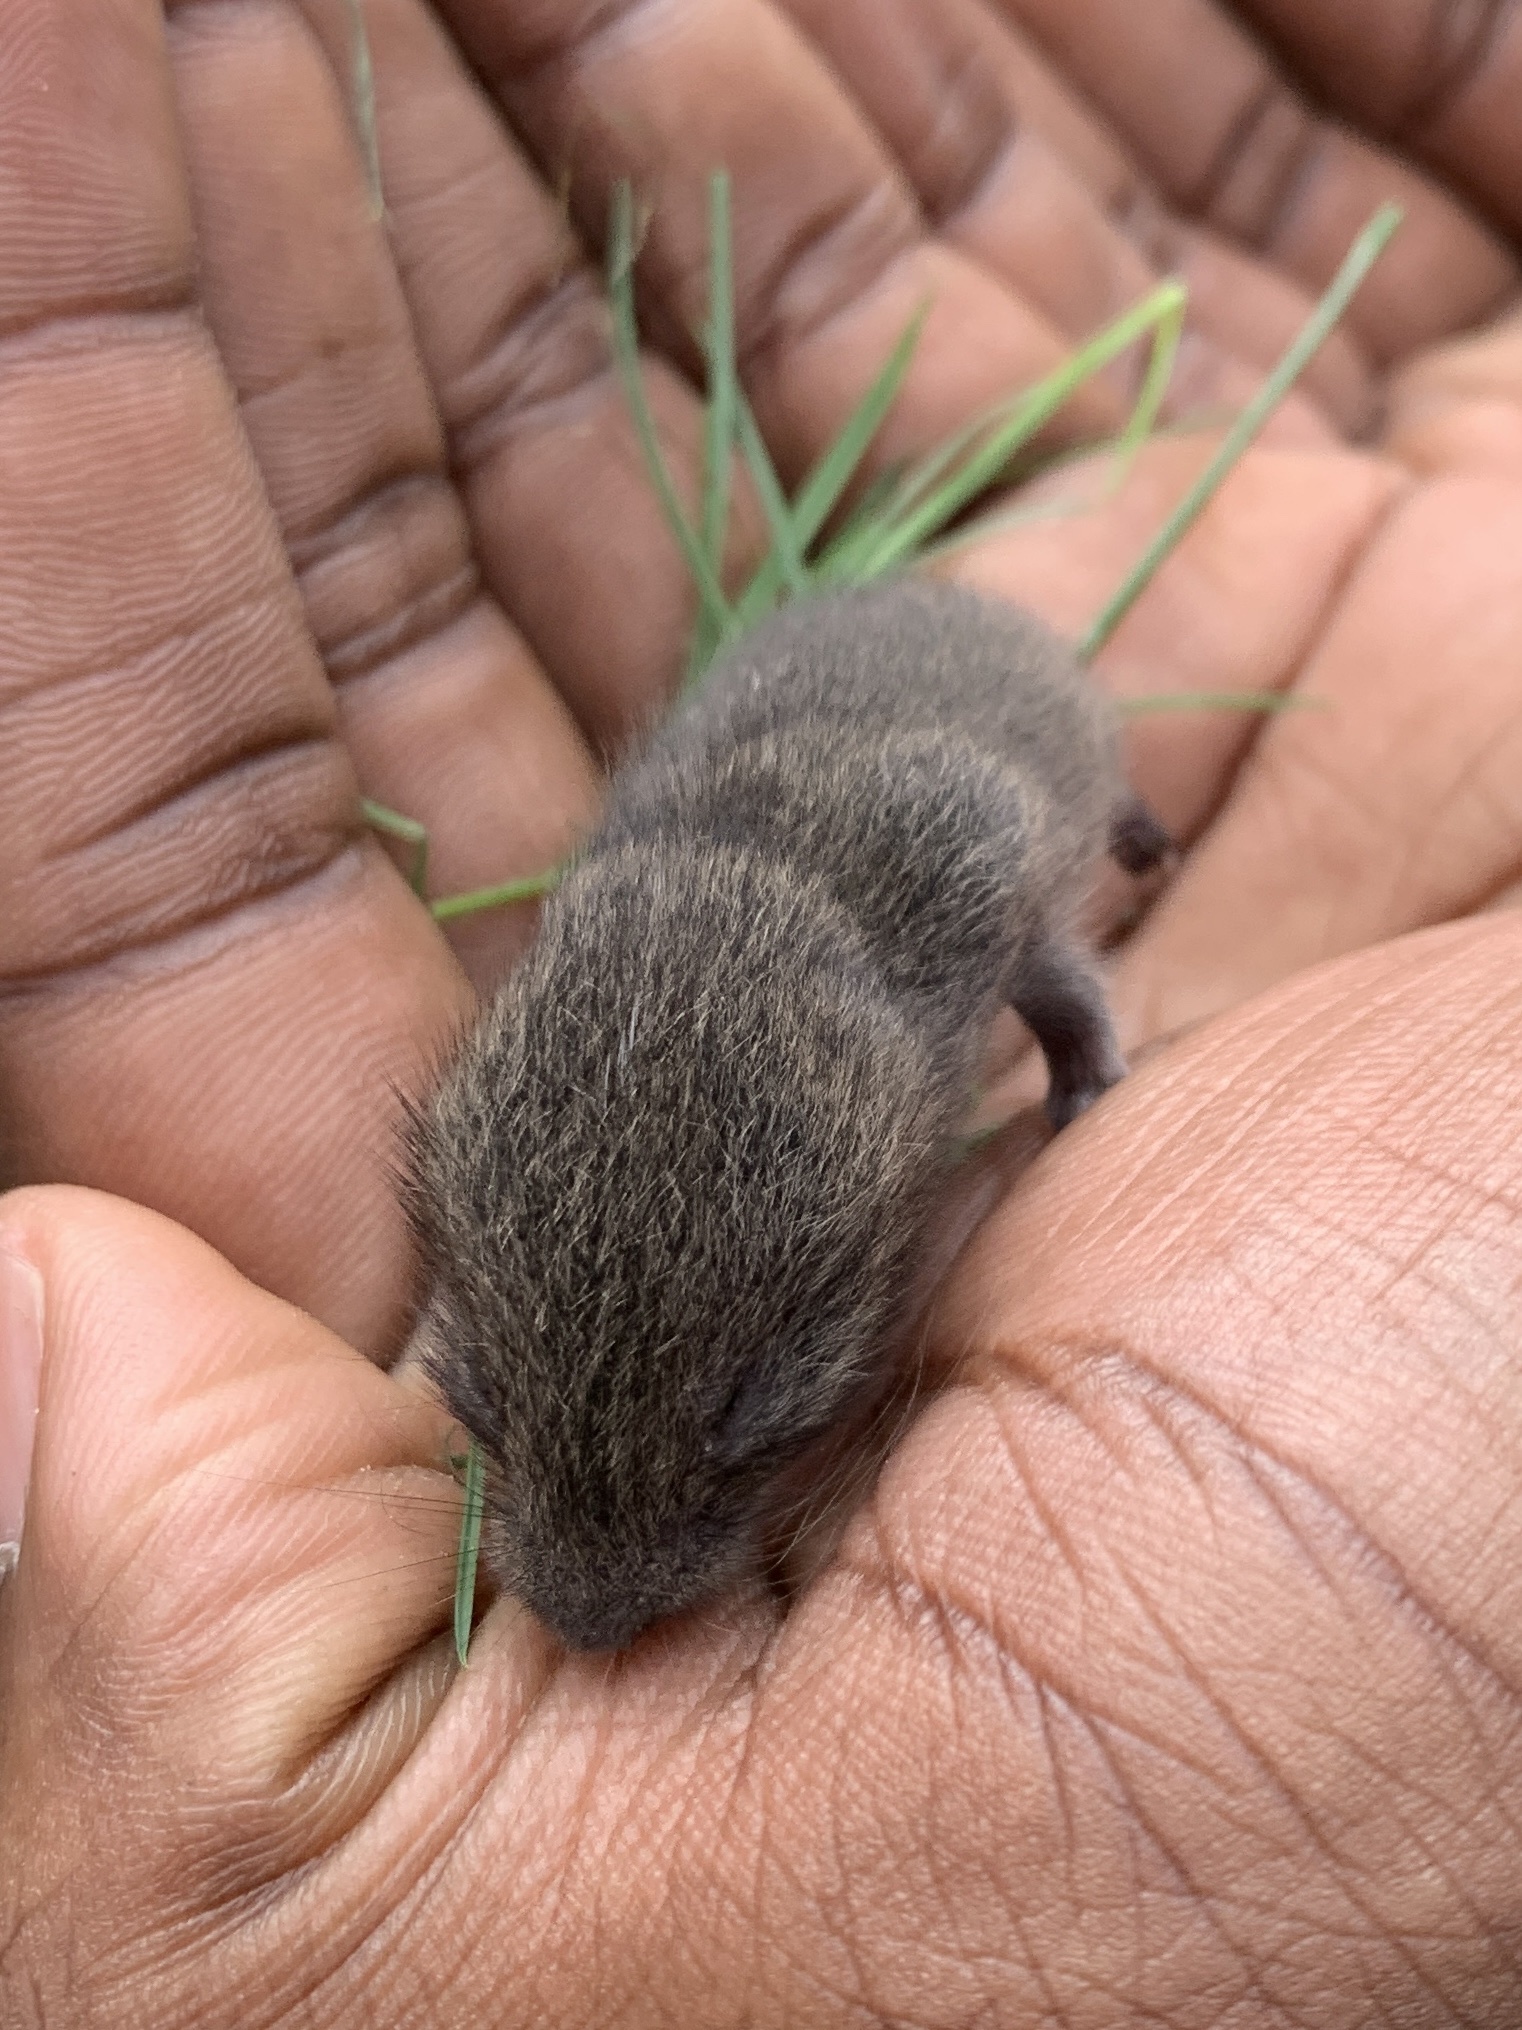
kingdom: Animalia
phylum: Chordata
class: Mammalia
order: Rodentia
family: Cricetidae
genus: Microtus
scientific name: Microtus pennsylvanicus
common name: Meadow vole
